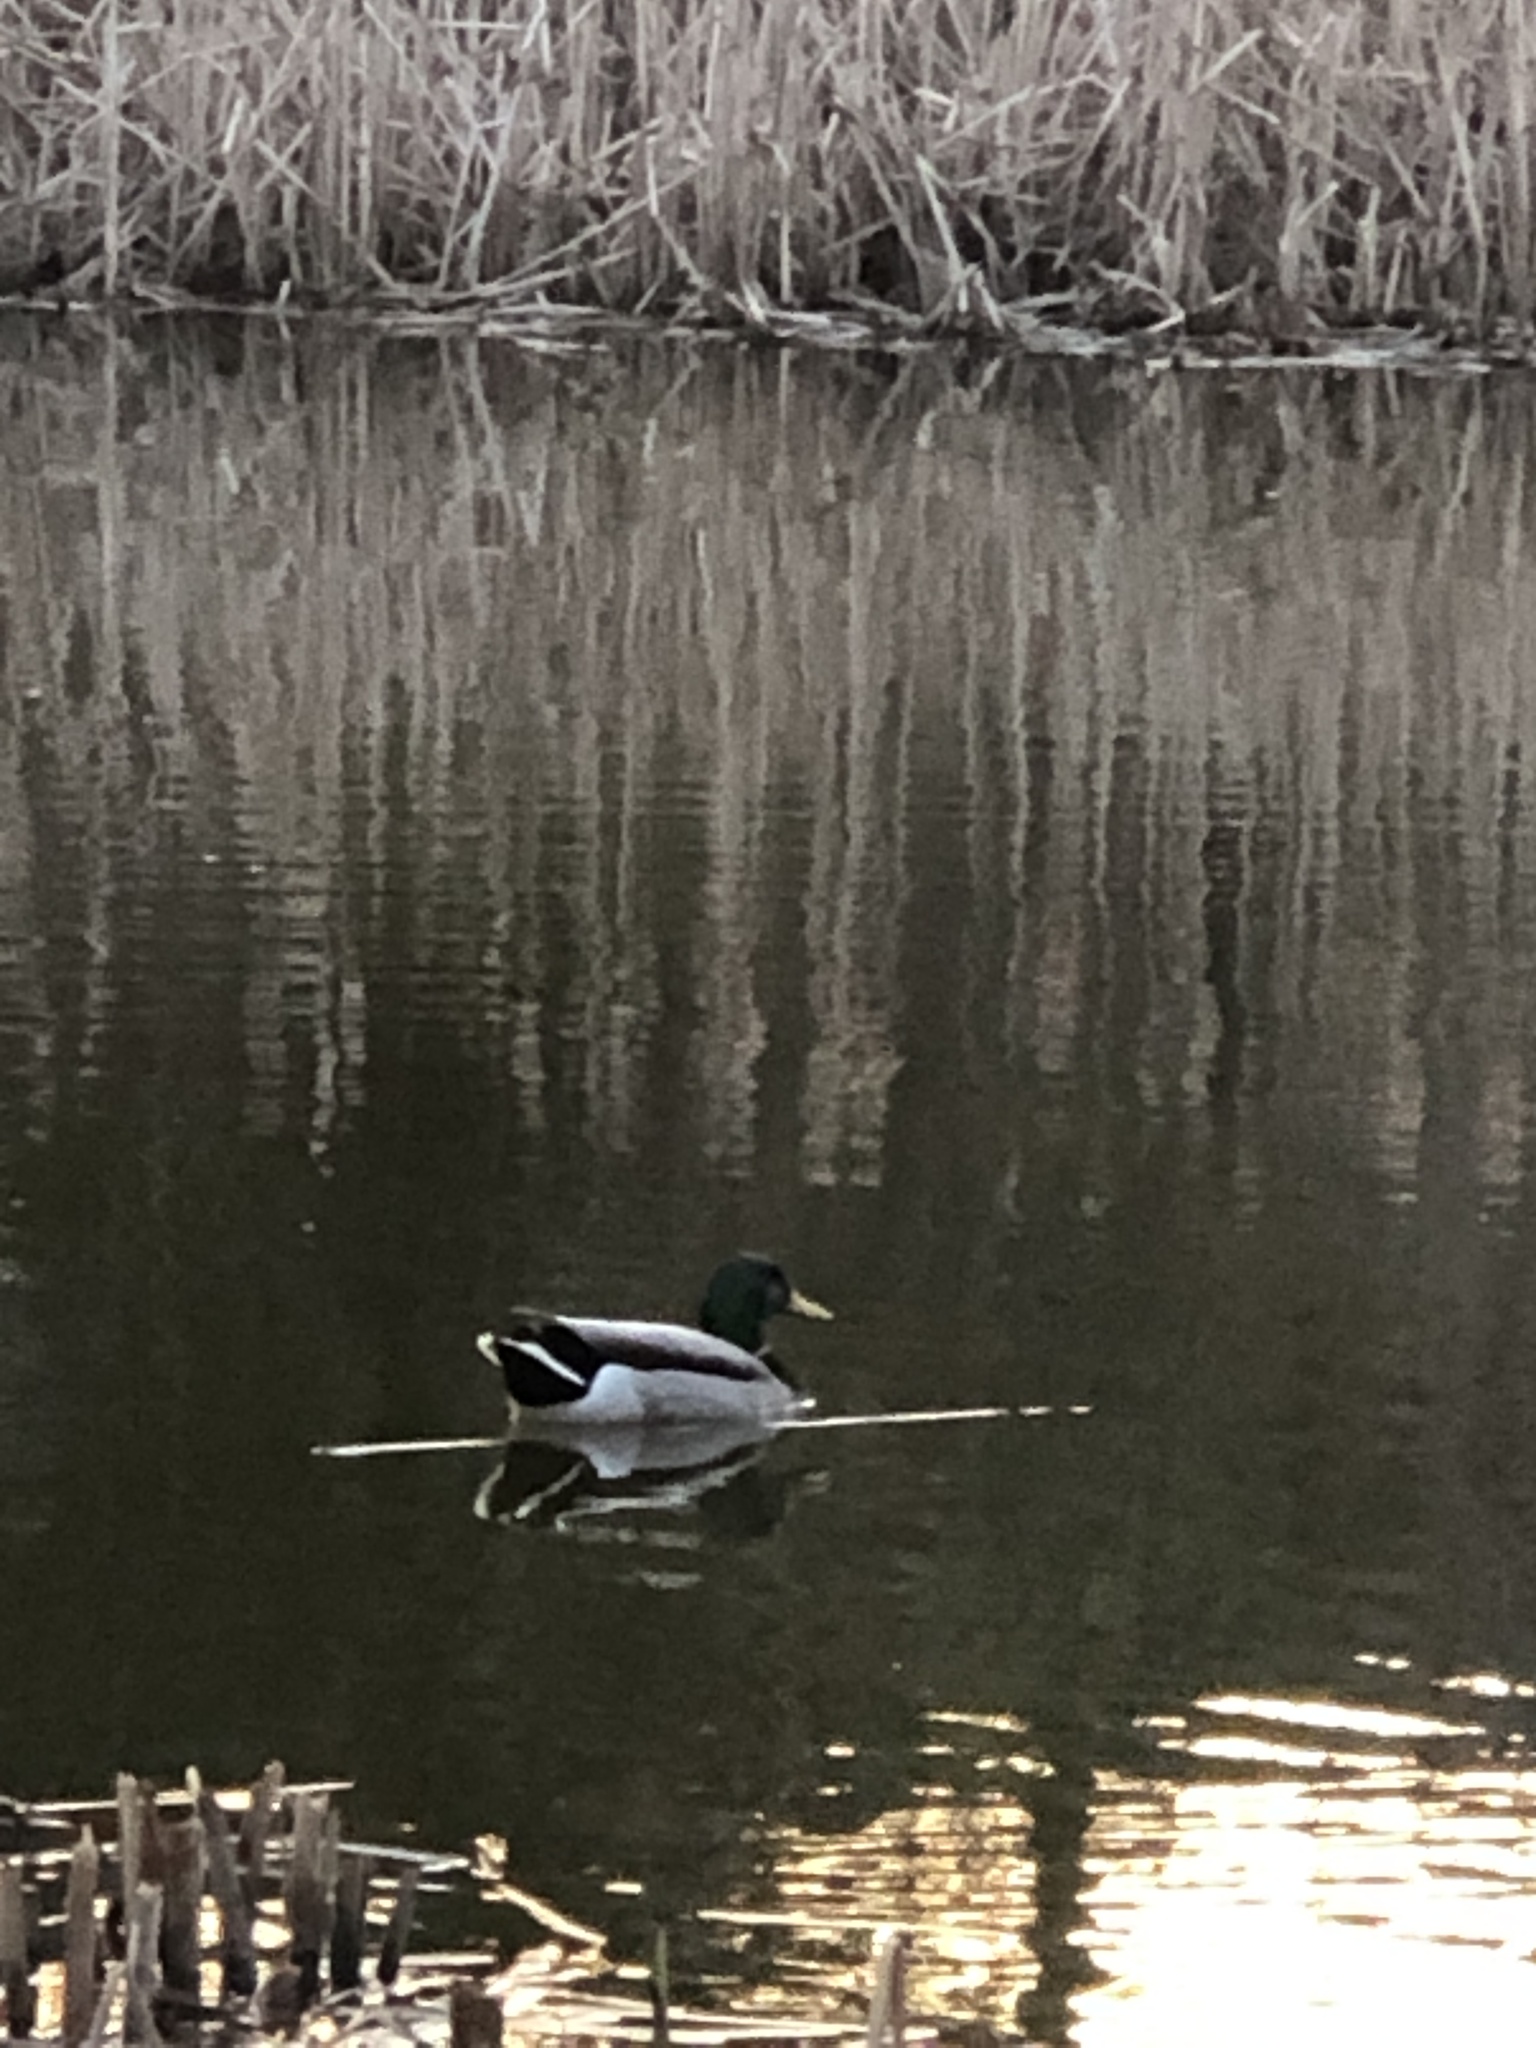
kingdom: Animalia
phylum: Chordata
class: Aves
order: Anseriformes
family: Anatidae
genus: Anas
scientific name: Anas platyrhynchos
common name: Mallard
